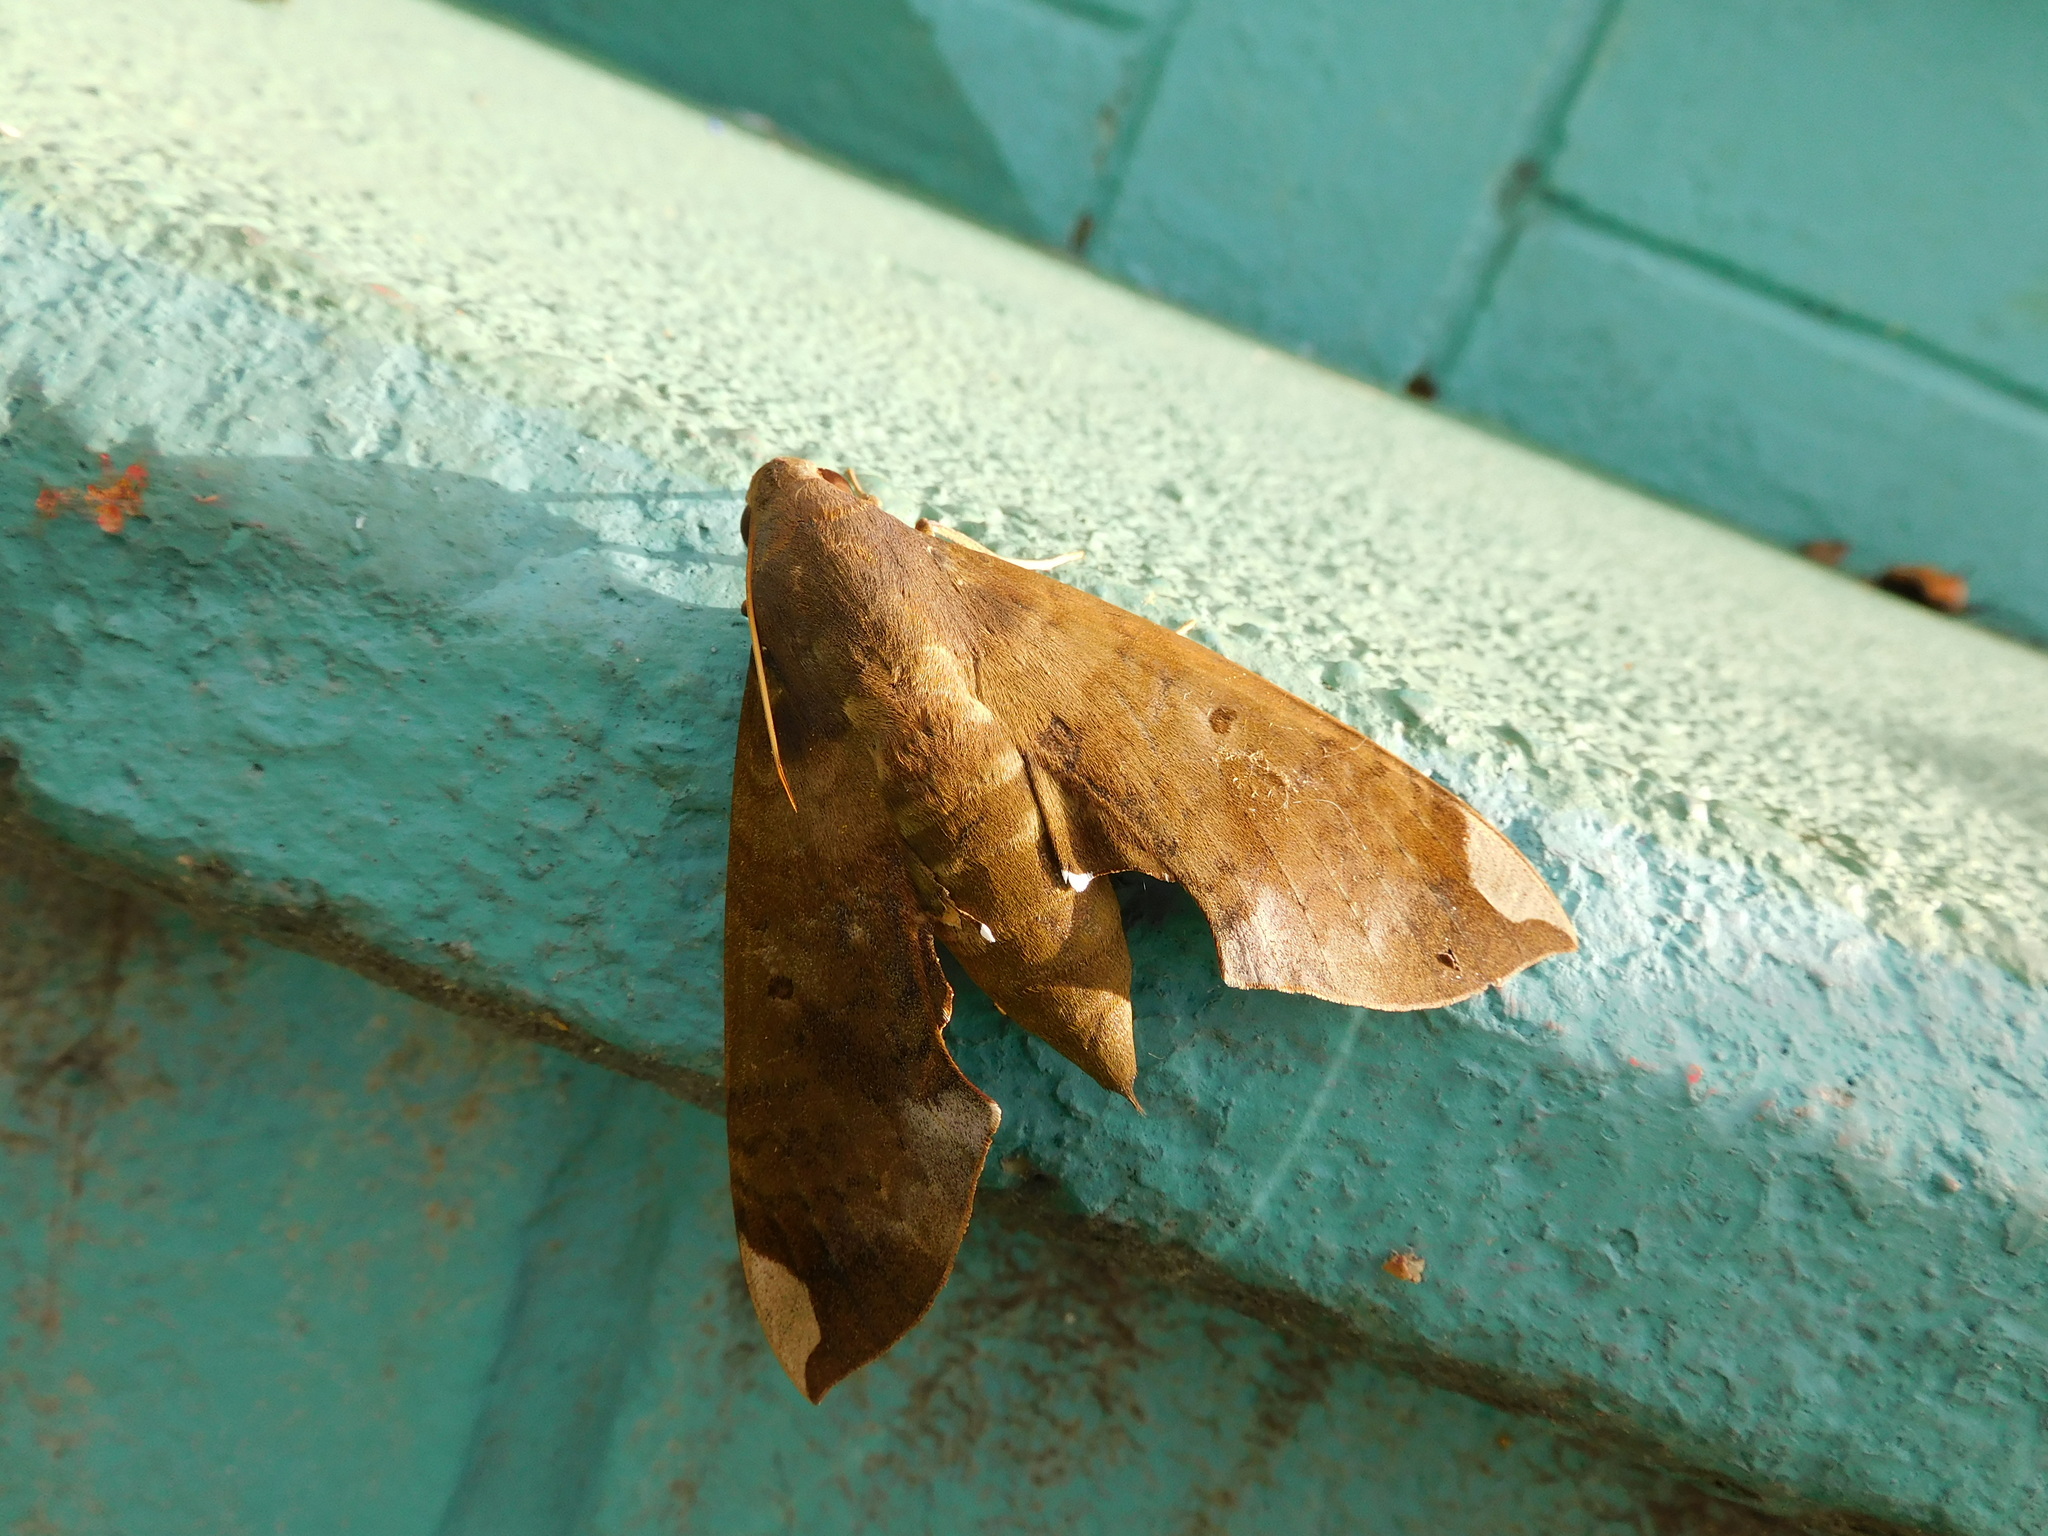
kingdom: Animalia
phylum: Arthropoda
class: Insecta
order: Lepidoptera
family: Sphingidae
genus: Pachylia
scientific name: Pachylia ficus
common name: Fig sphinx
